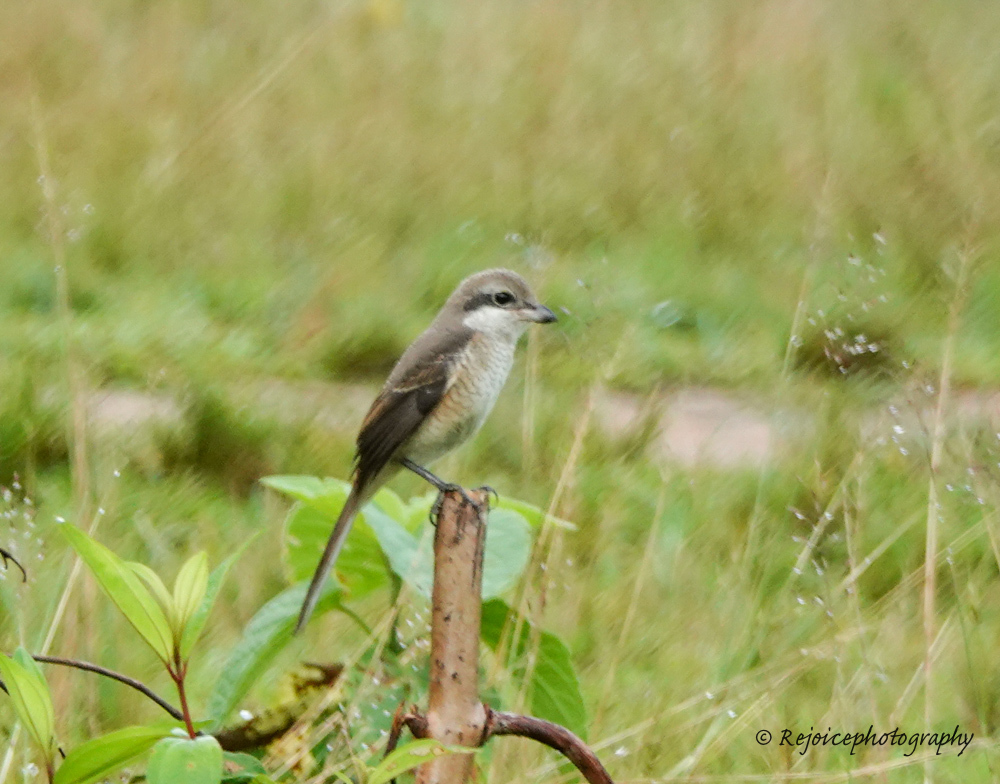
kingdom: Animalia
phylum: Chordata
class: Aves
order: Passeriformes
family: Laniidae
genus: Lanius
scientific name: Lanius cristatus
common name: Brown shrike
